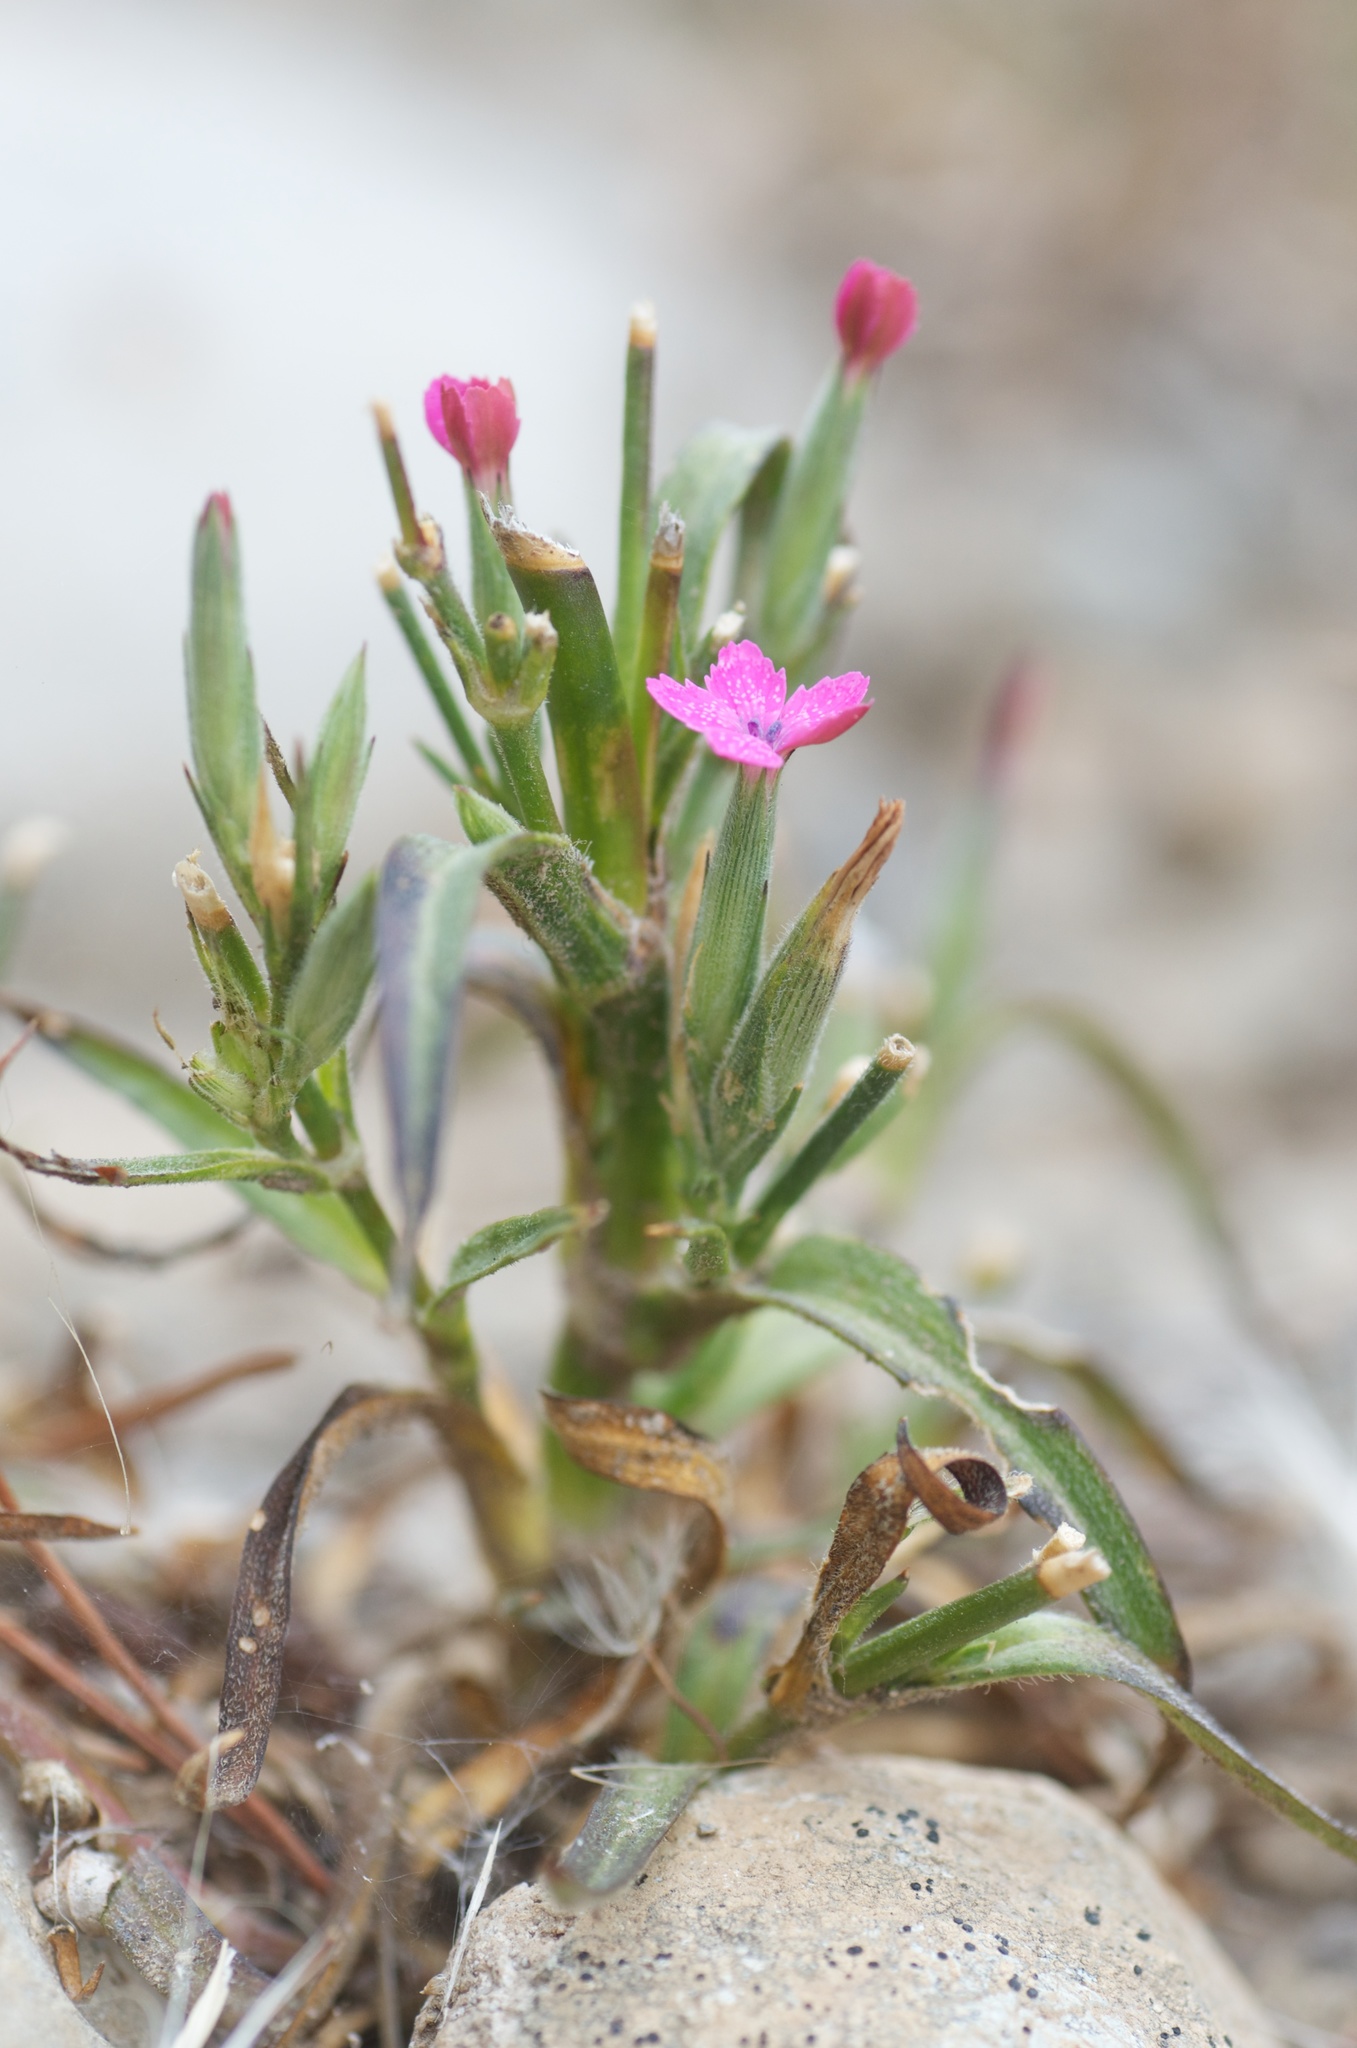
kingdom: Plantae
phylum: Tracheophyta
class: Magnoliopsida
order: Caryophyllales
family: Caryophyllaceae
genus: Dianthus
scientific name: Dianthus armeria
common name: Deptford pink
